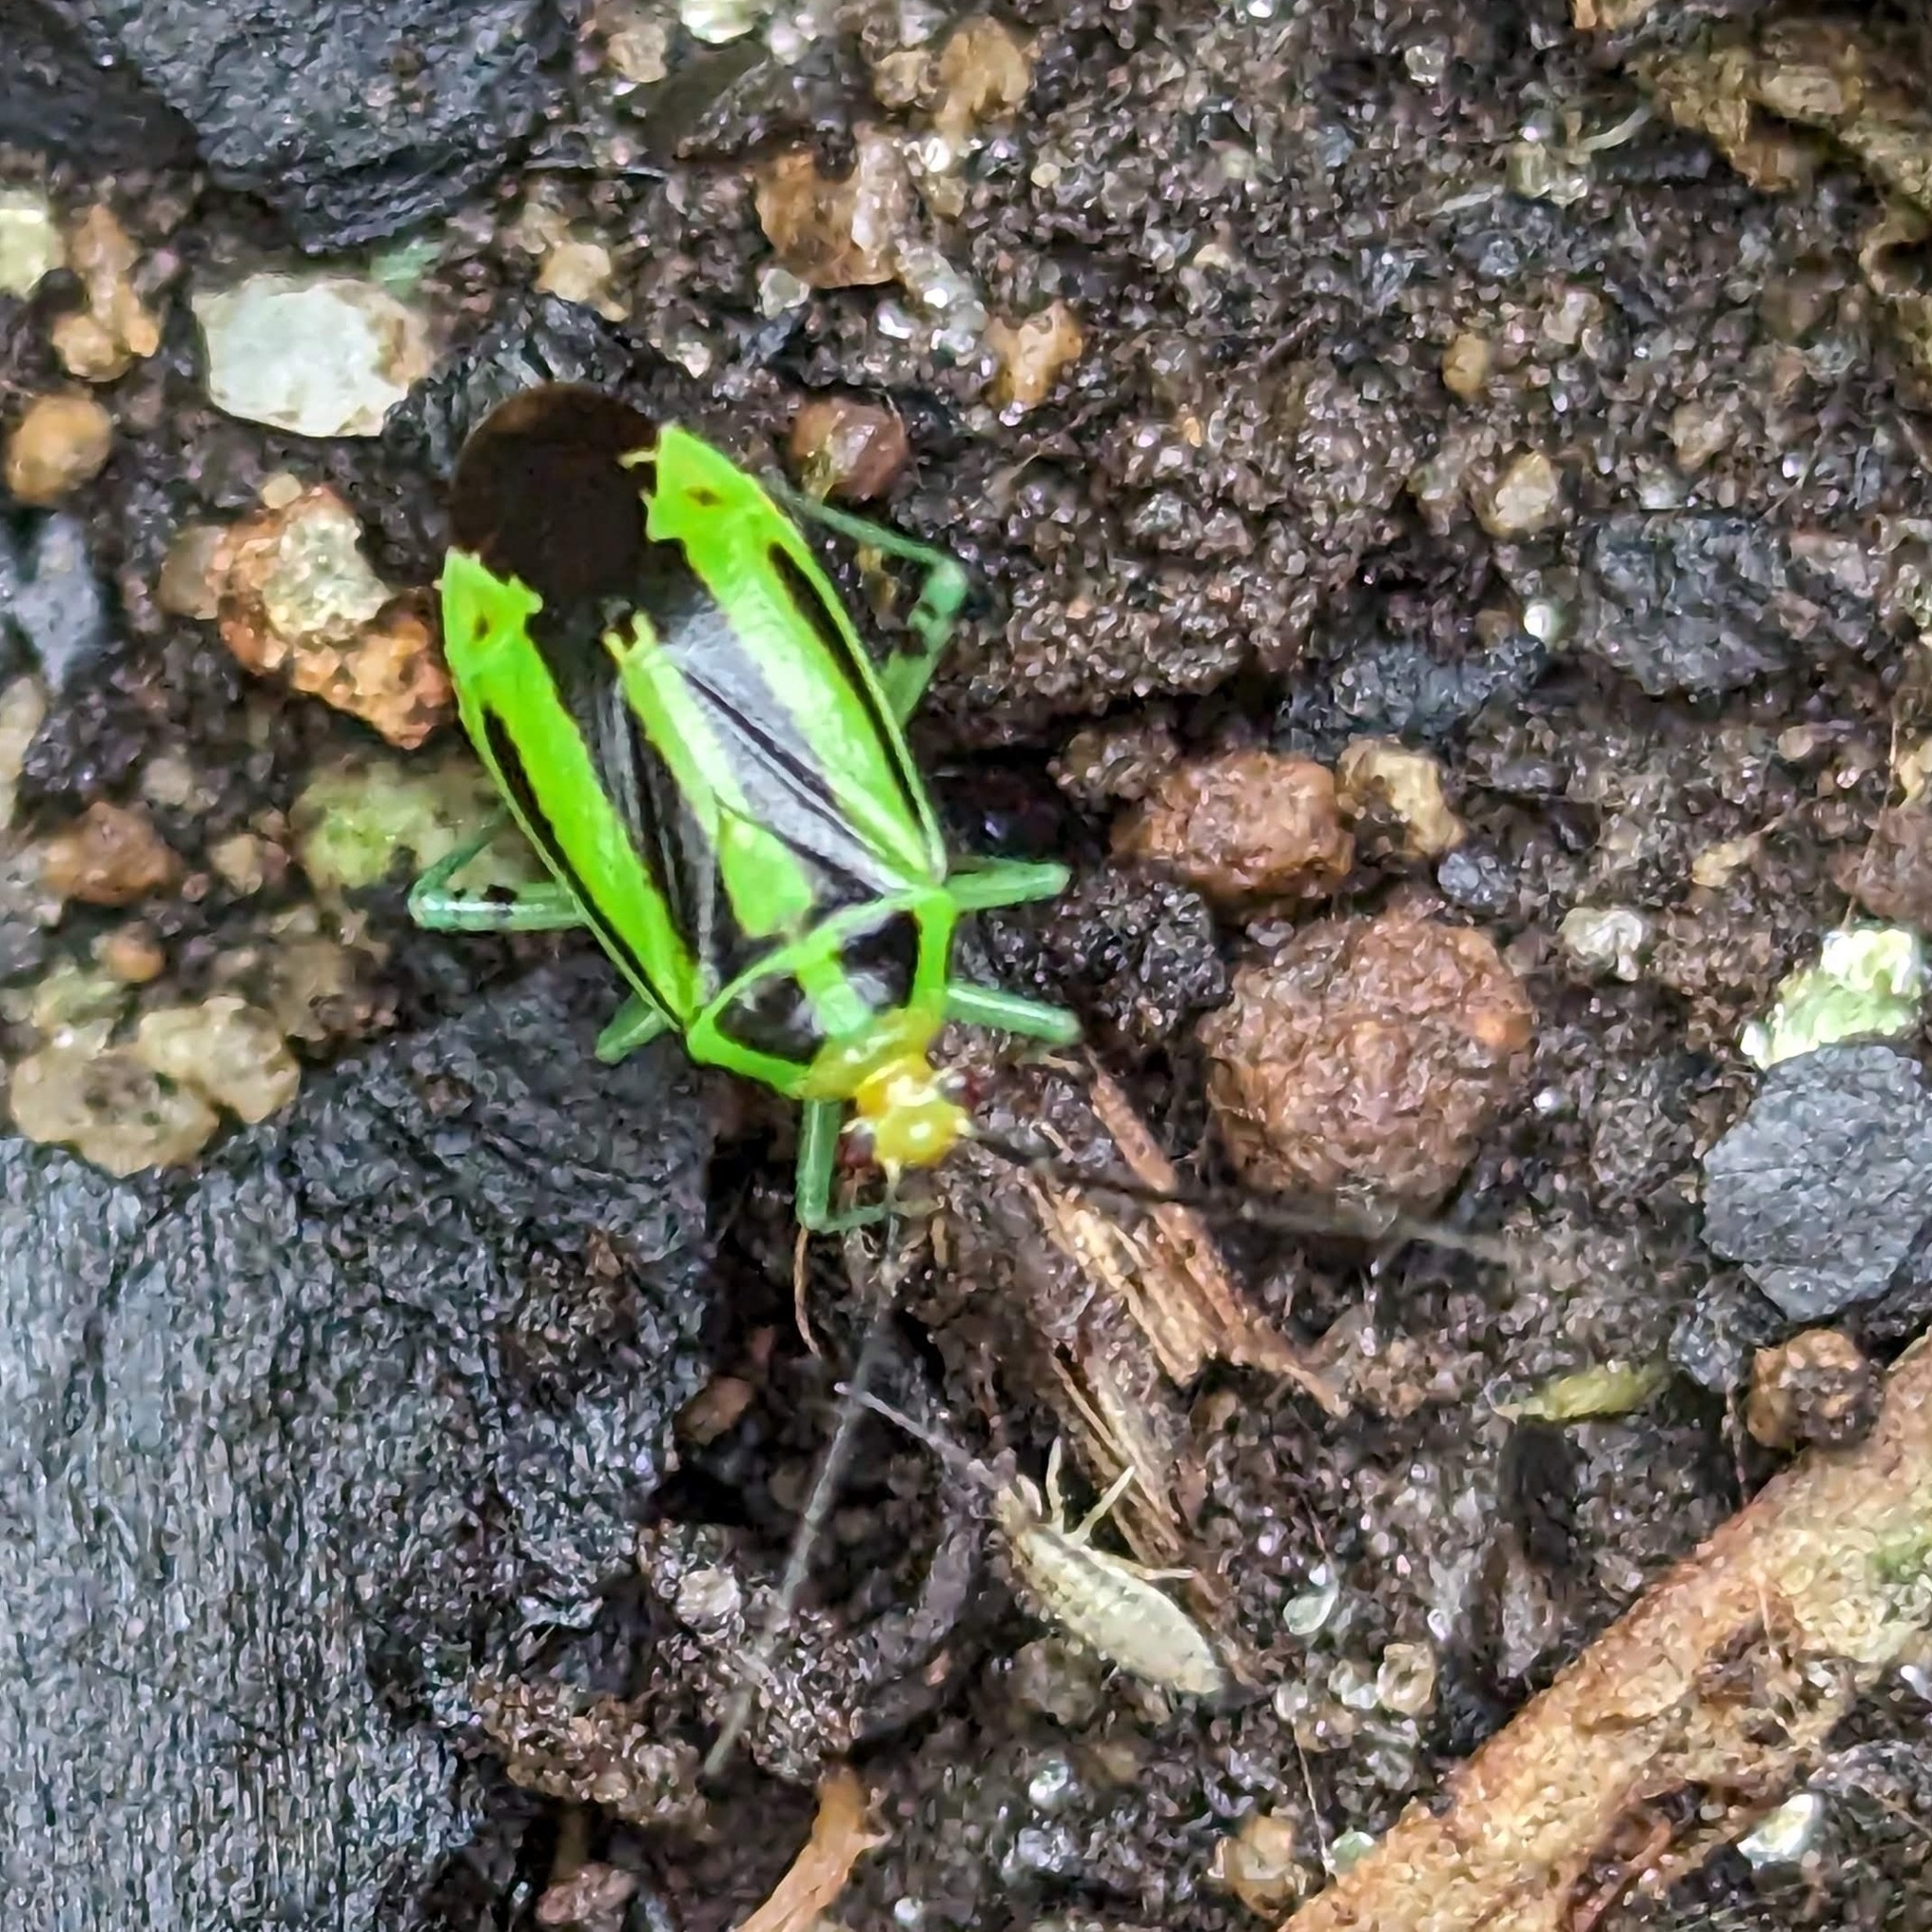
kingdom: Animalia
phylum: Arthropoda
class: Insecta
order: Hemiptera
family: Miridae
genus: Poecilocapsus
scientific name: Poecilocapsus lineatus
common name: Four-lined plant bug
